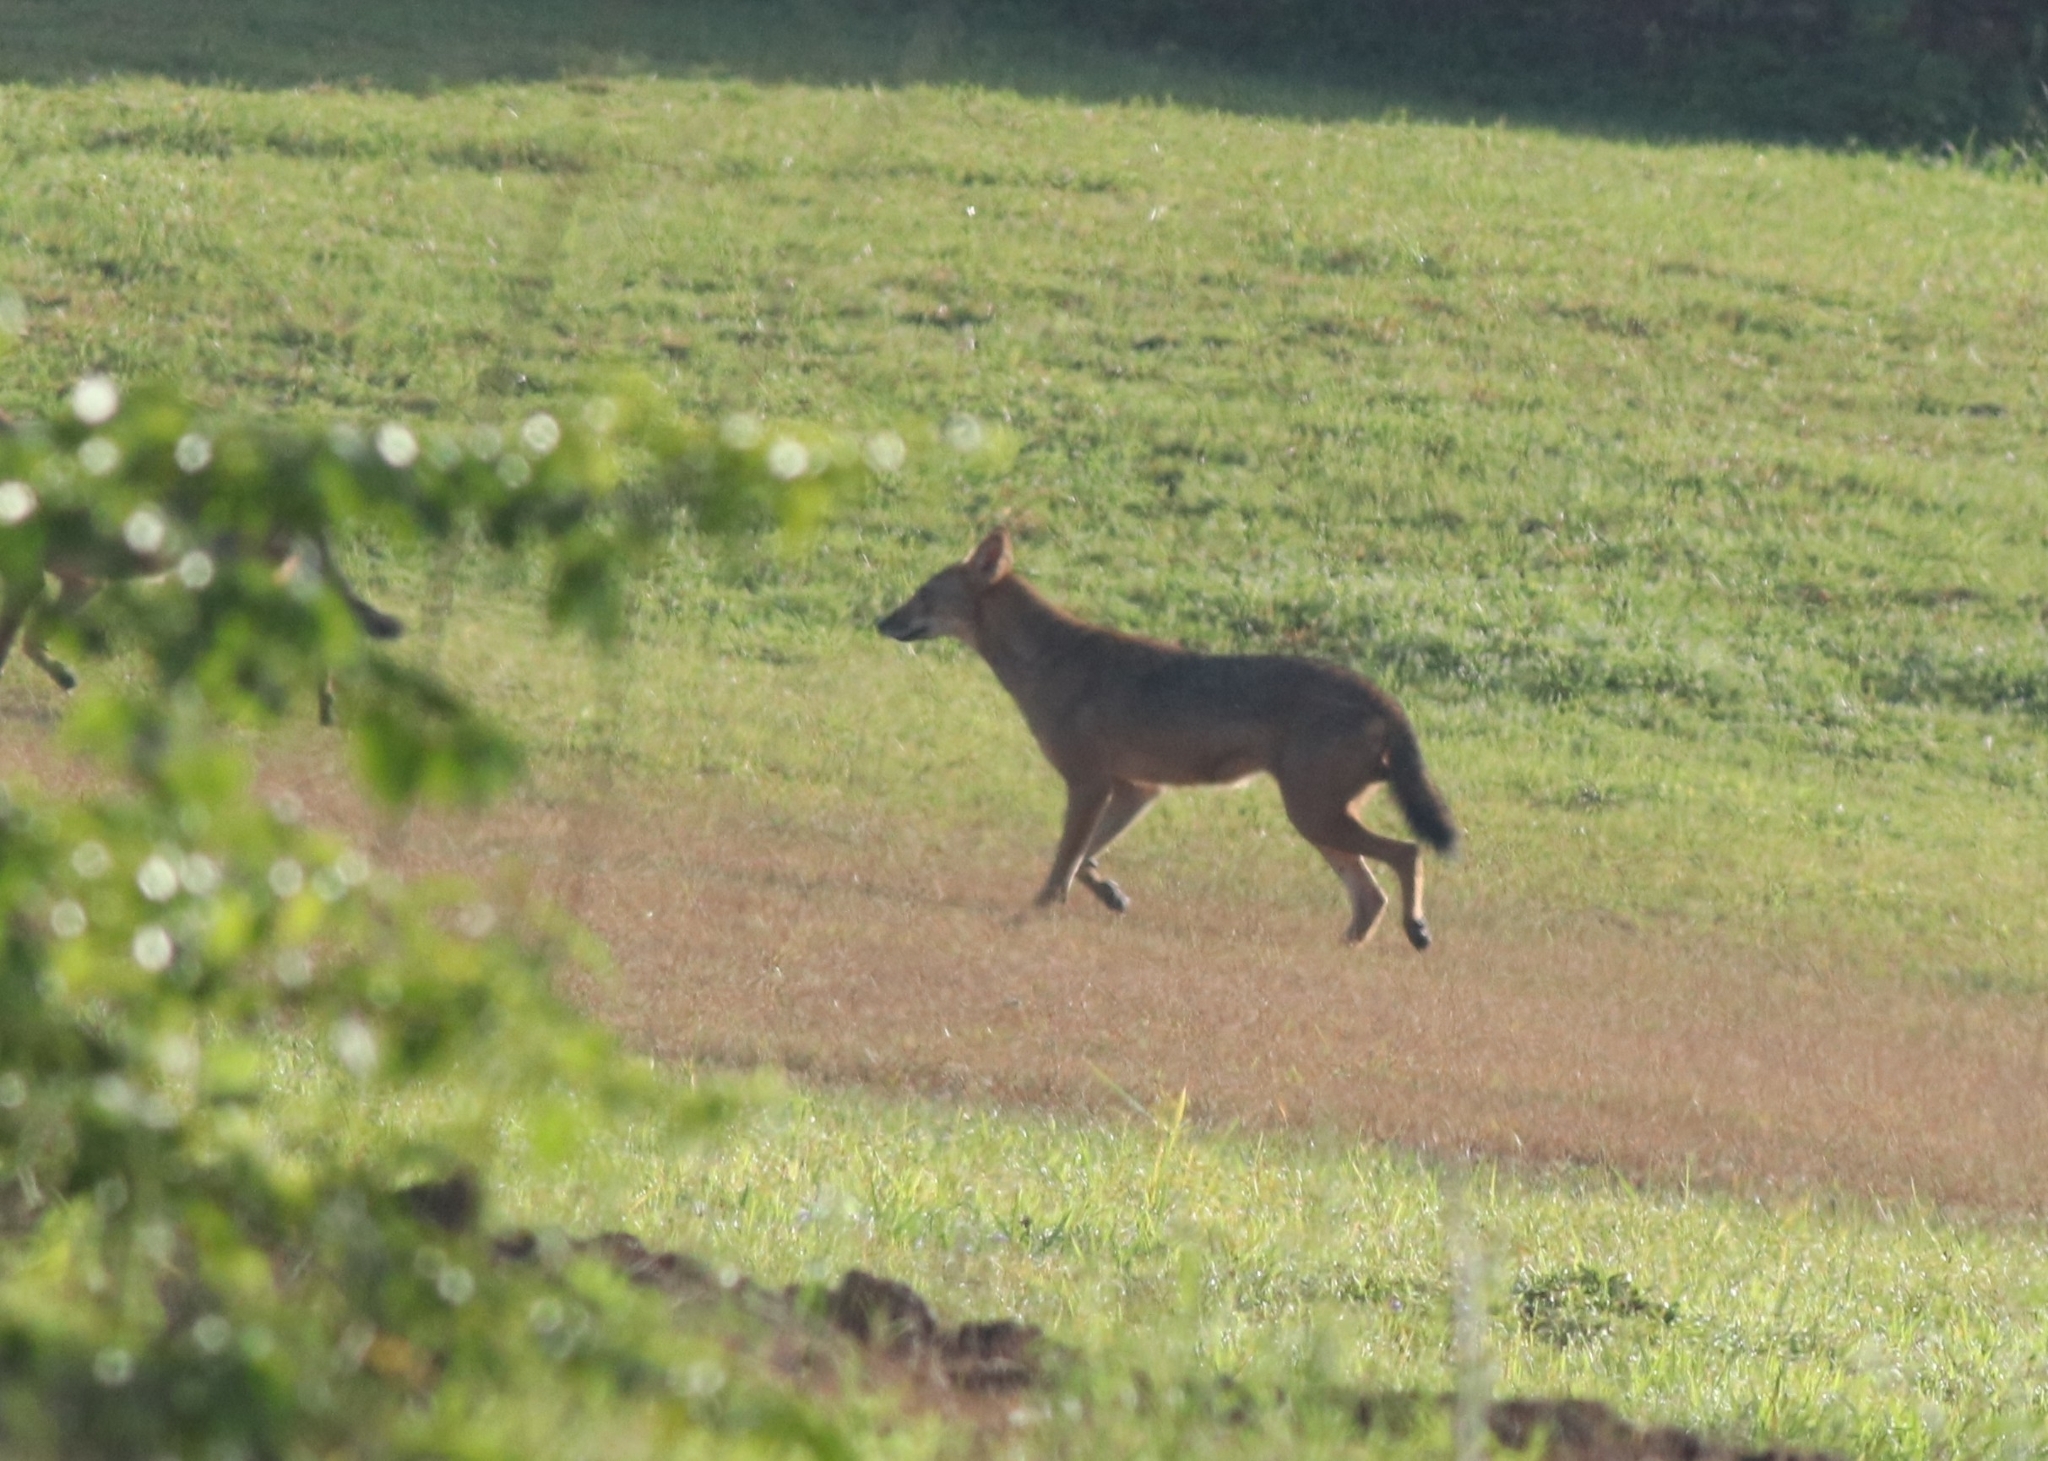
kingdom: Animalia
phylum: Chordata
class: Mammalia
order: Carnivora
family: Canidae
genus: Canis
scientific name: Canis aureus
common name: Golden jackal
